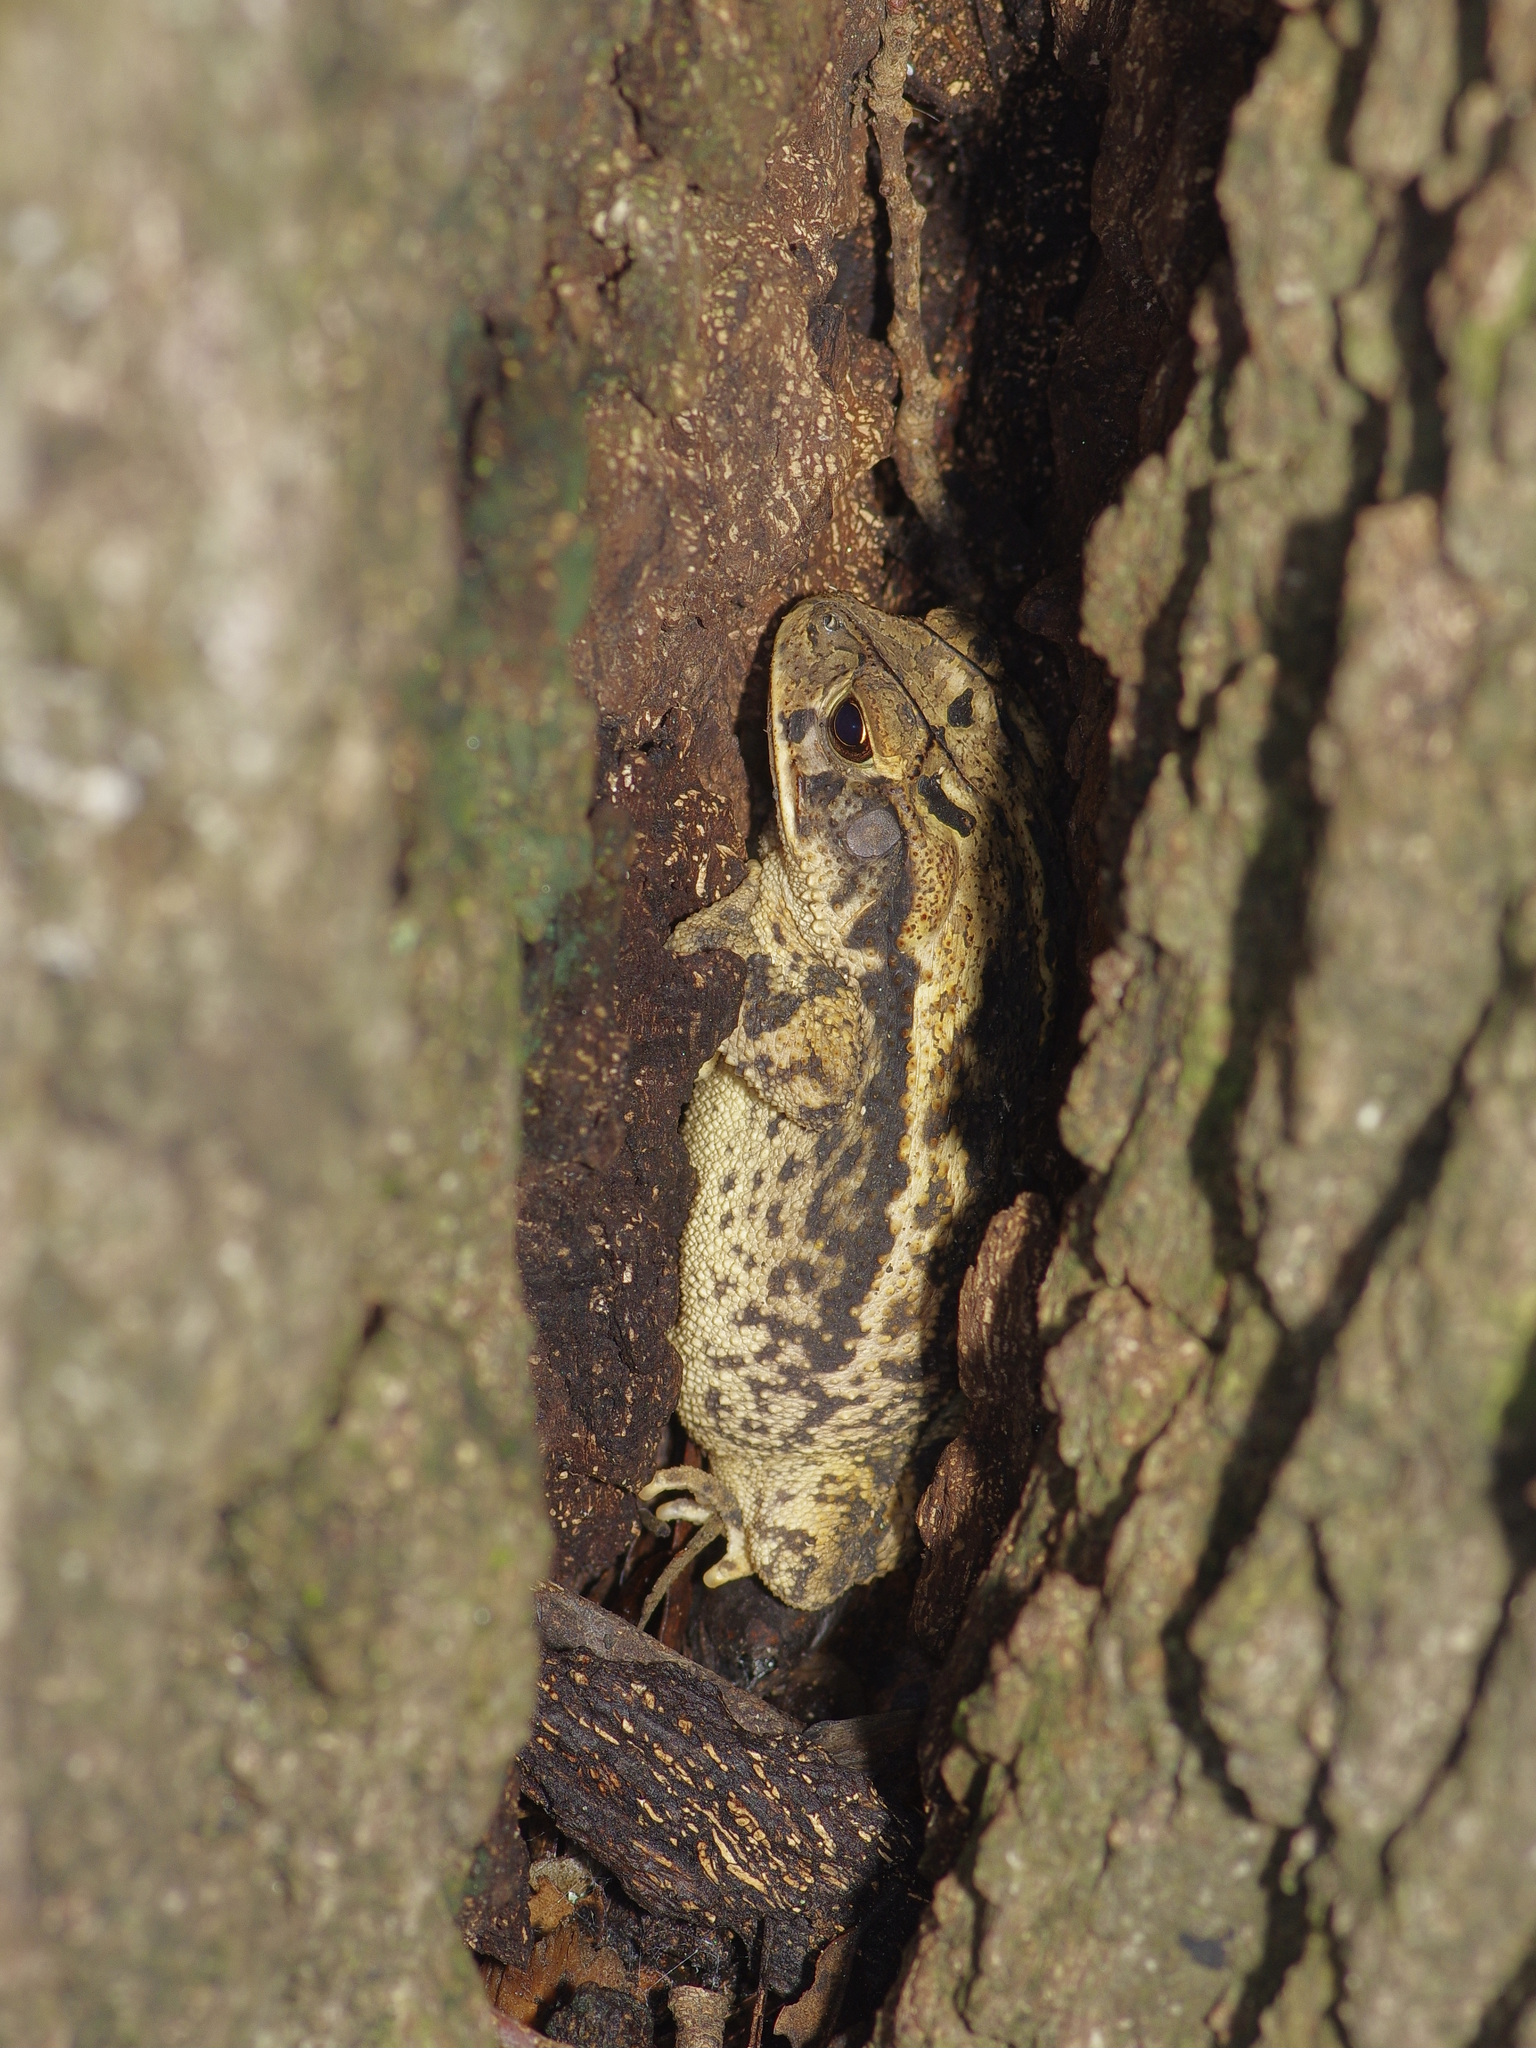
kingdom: Animalia
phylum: Chordata
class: Amphibia
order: Anura
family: Bufonidae
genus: Incilius
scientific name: Incilius nebulifer
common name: Gulf coast toad
